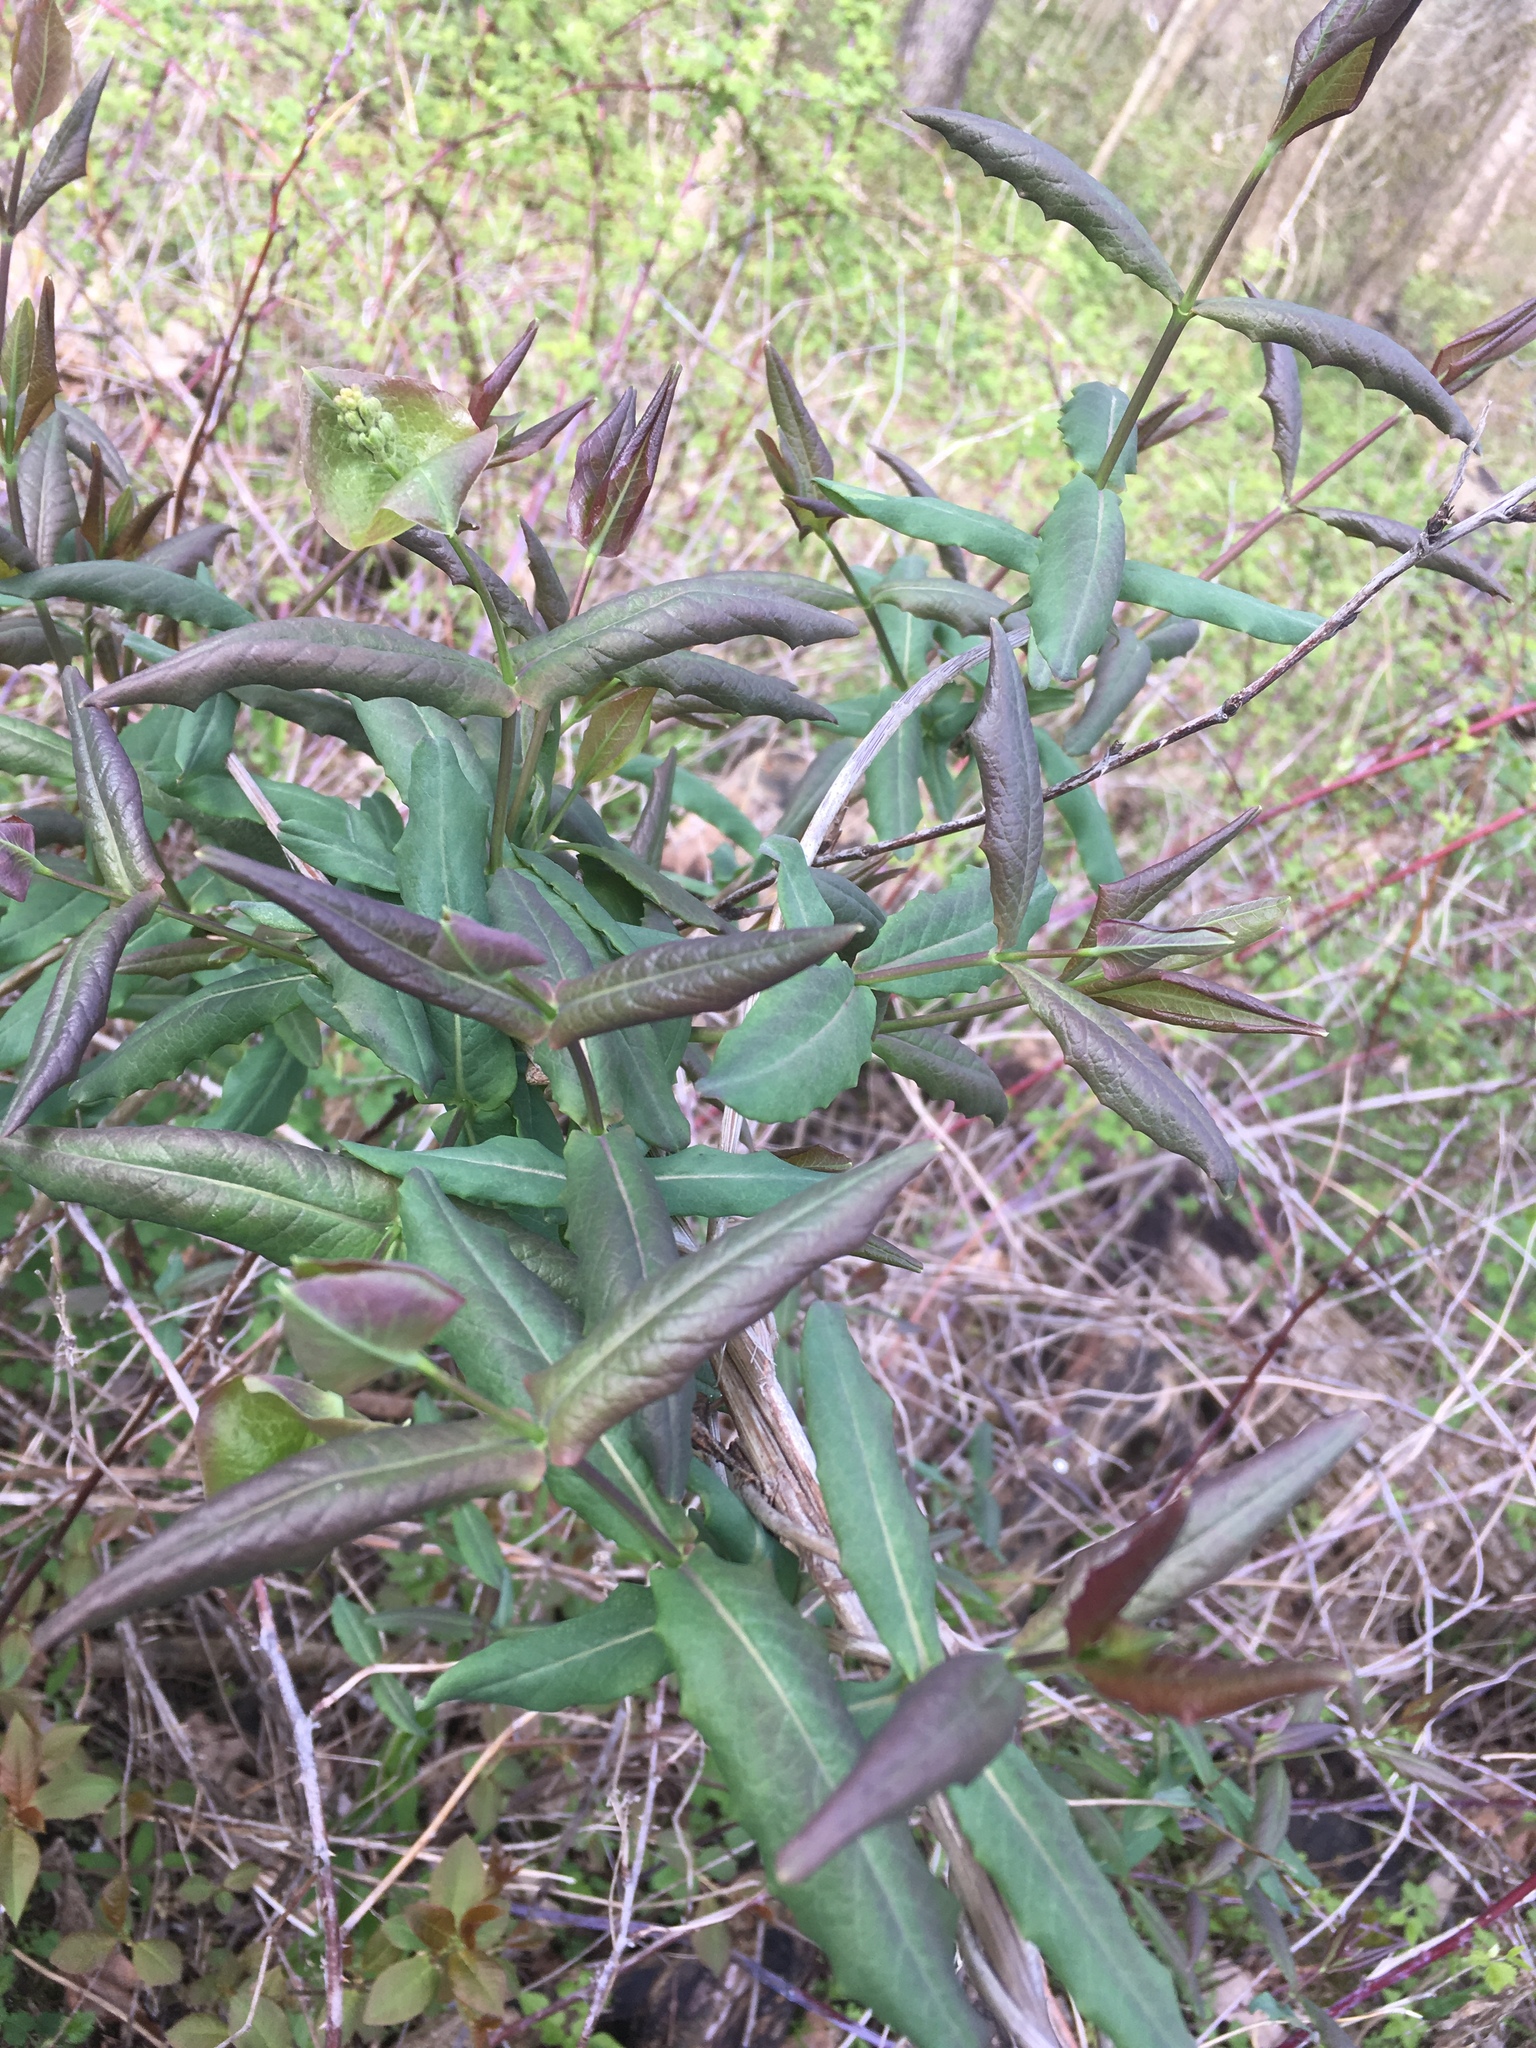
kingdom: Plantae
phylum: Tracheophyta
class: Magnoliopsida
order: Dipsacales
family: Caprifoliaceae
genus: Lonicera
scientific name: Lonicera dioica
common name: Limber honeysuckle
